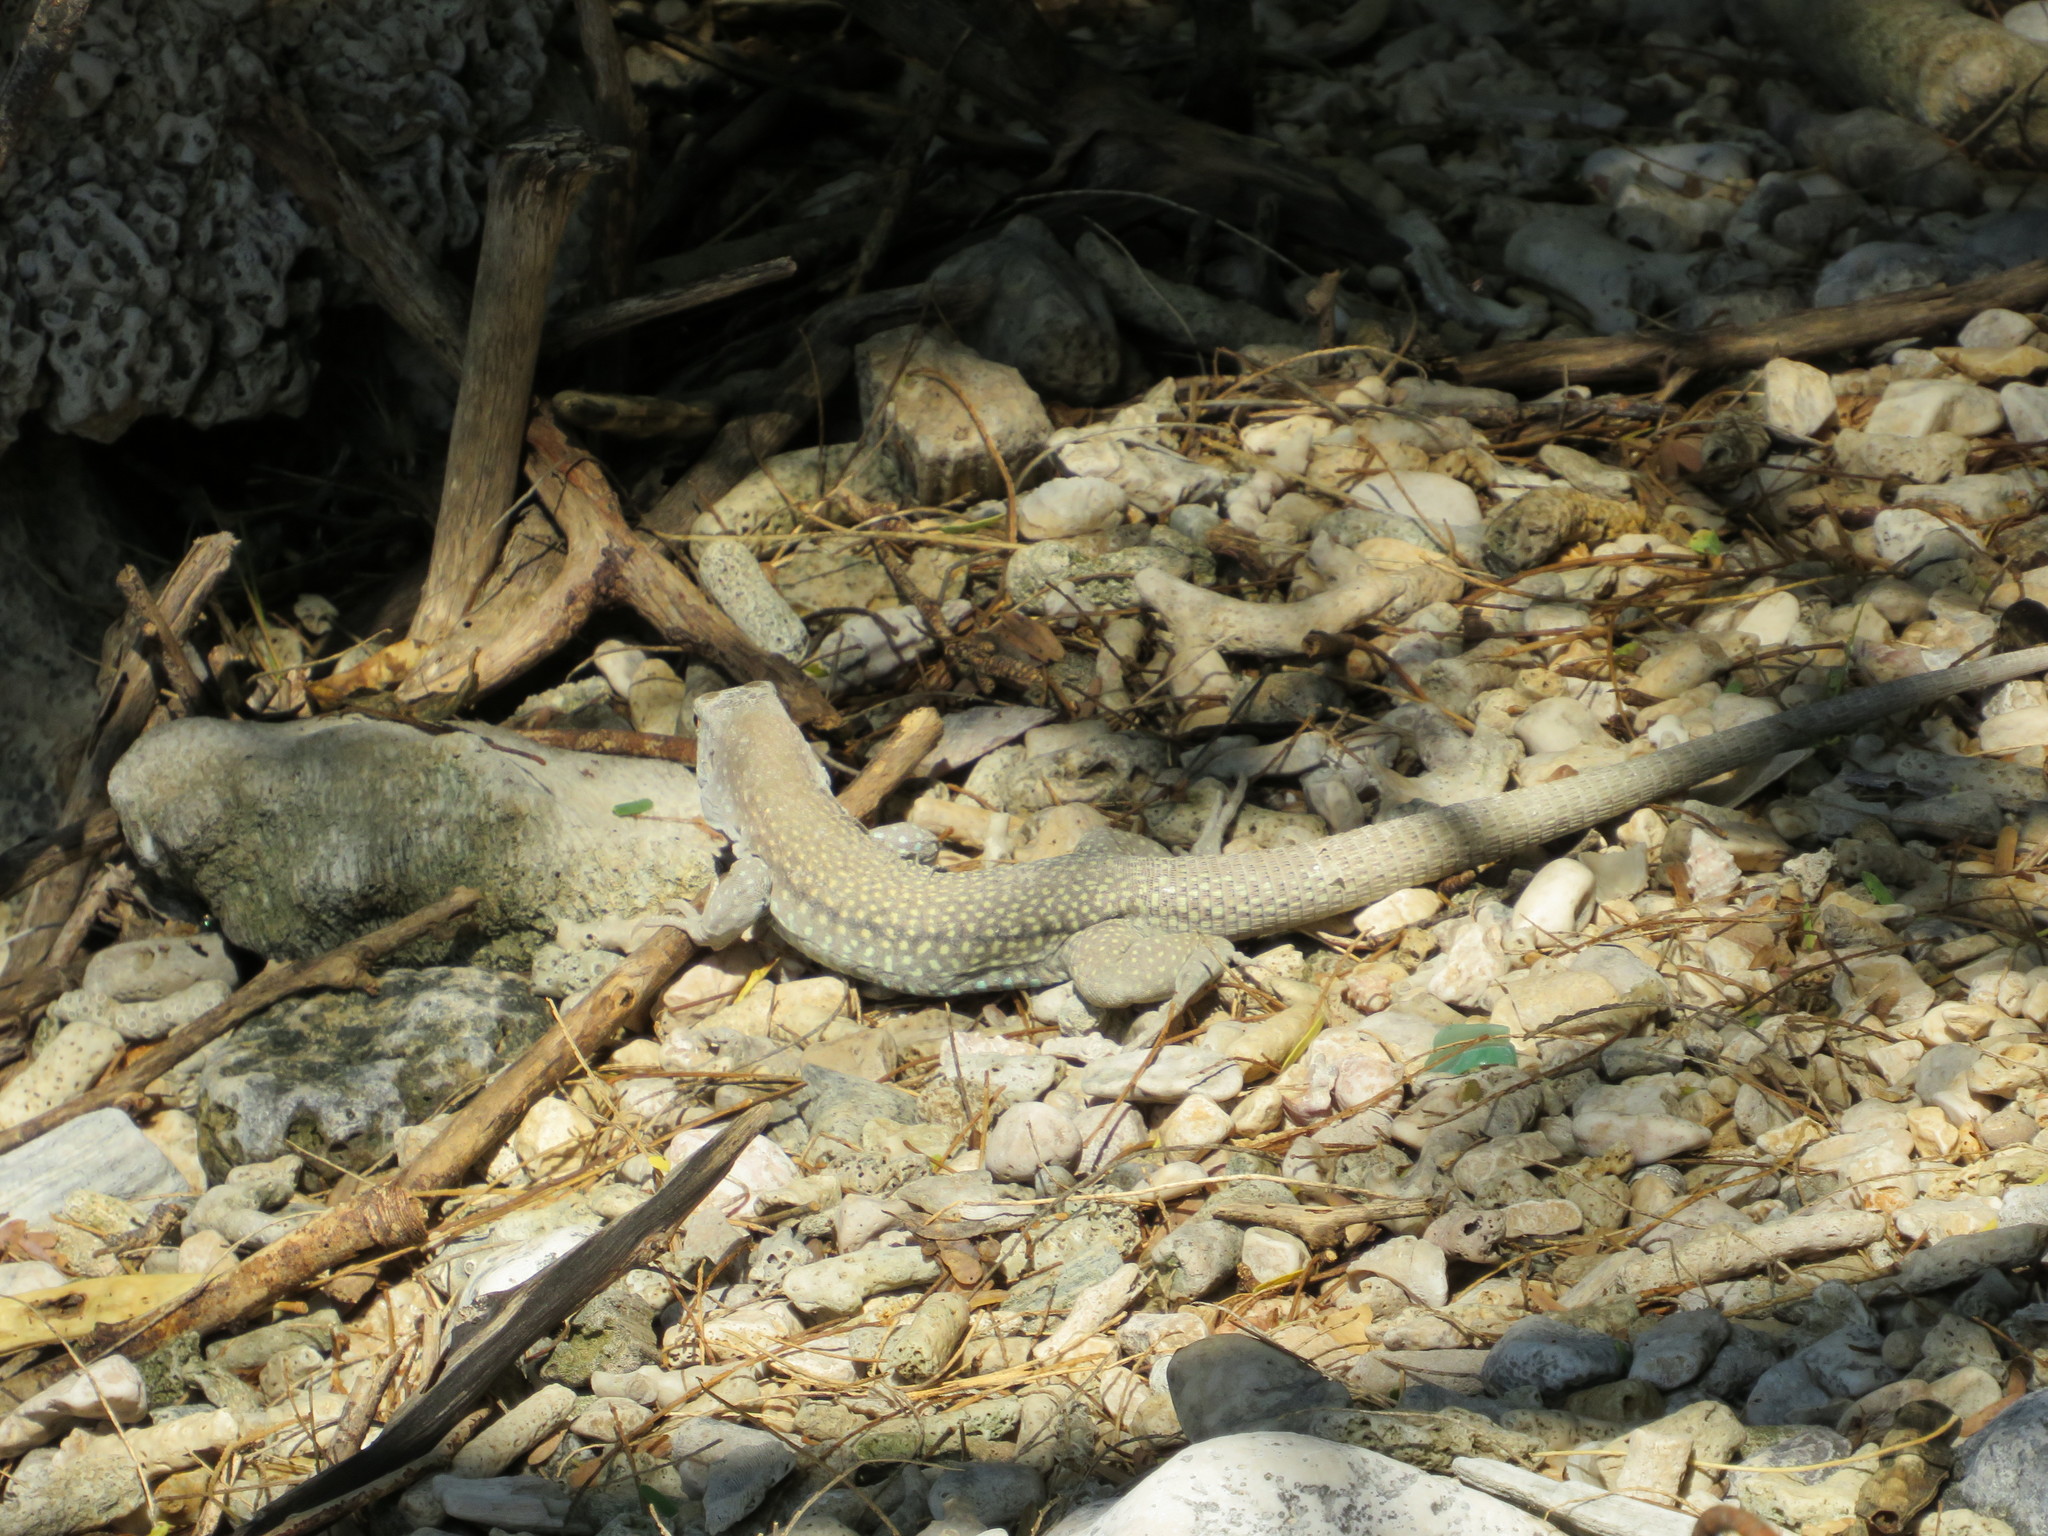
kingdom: Animalia
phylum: Chordata
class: Squamata
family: Teiidae
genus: Pholidoscelis
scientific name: Pholidoscelis chrysolaemus
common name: Common ameiva
